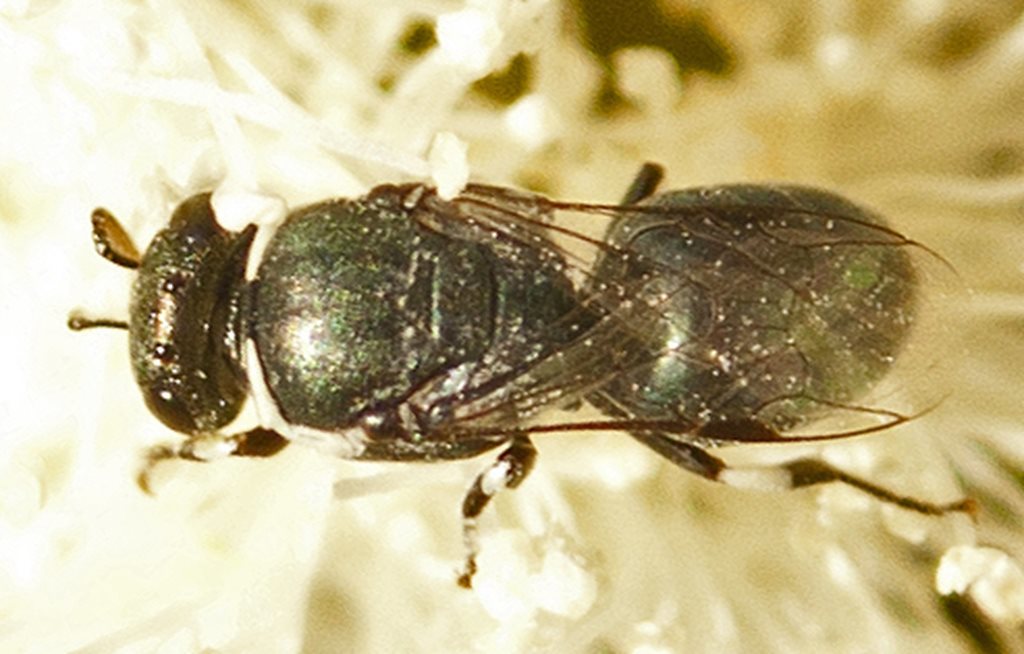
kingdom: Animalia
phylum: Arthropoda
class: Insecta
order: Hymenoptera
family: Colletidae
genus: Hylaeus
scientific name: Hylaeus albonitens
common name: Colletid bee
